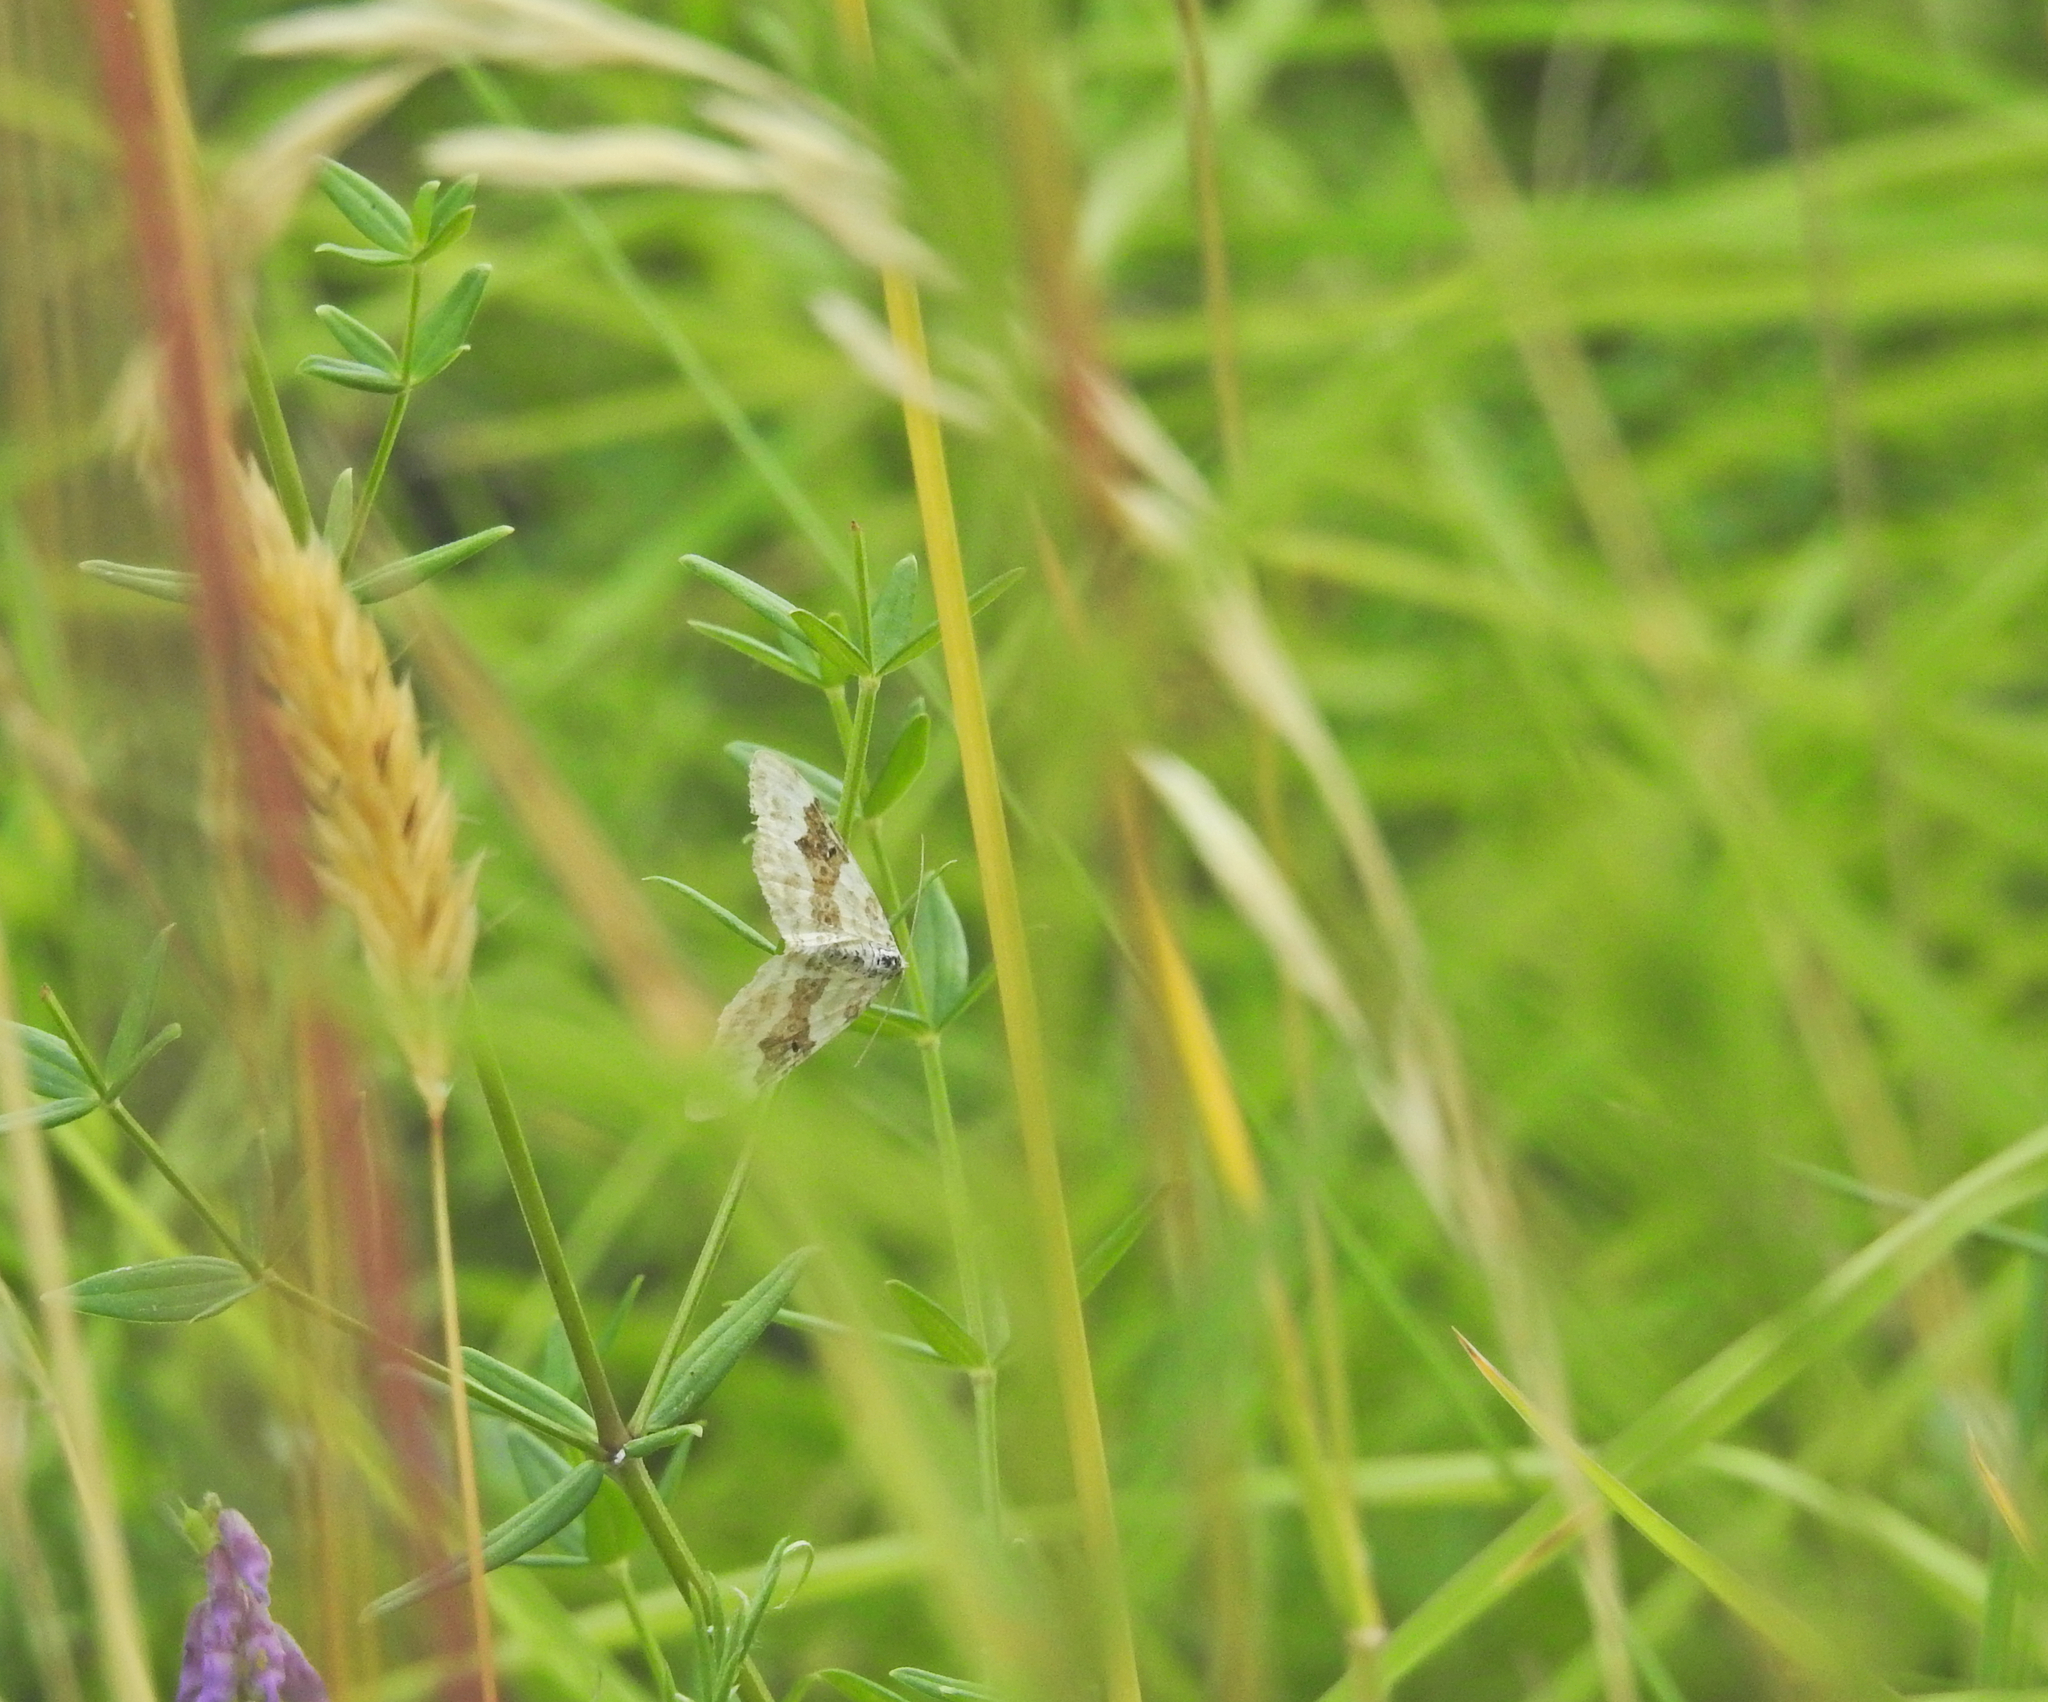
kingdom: Animalia
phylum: Arthropoda
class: Insecta
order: Lepidoptera
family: Geometridae
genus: Xanthorhoe
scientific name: Xanthorhoe montanata
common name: Silver-ground carpet
